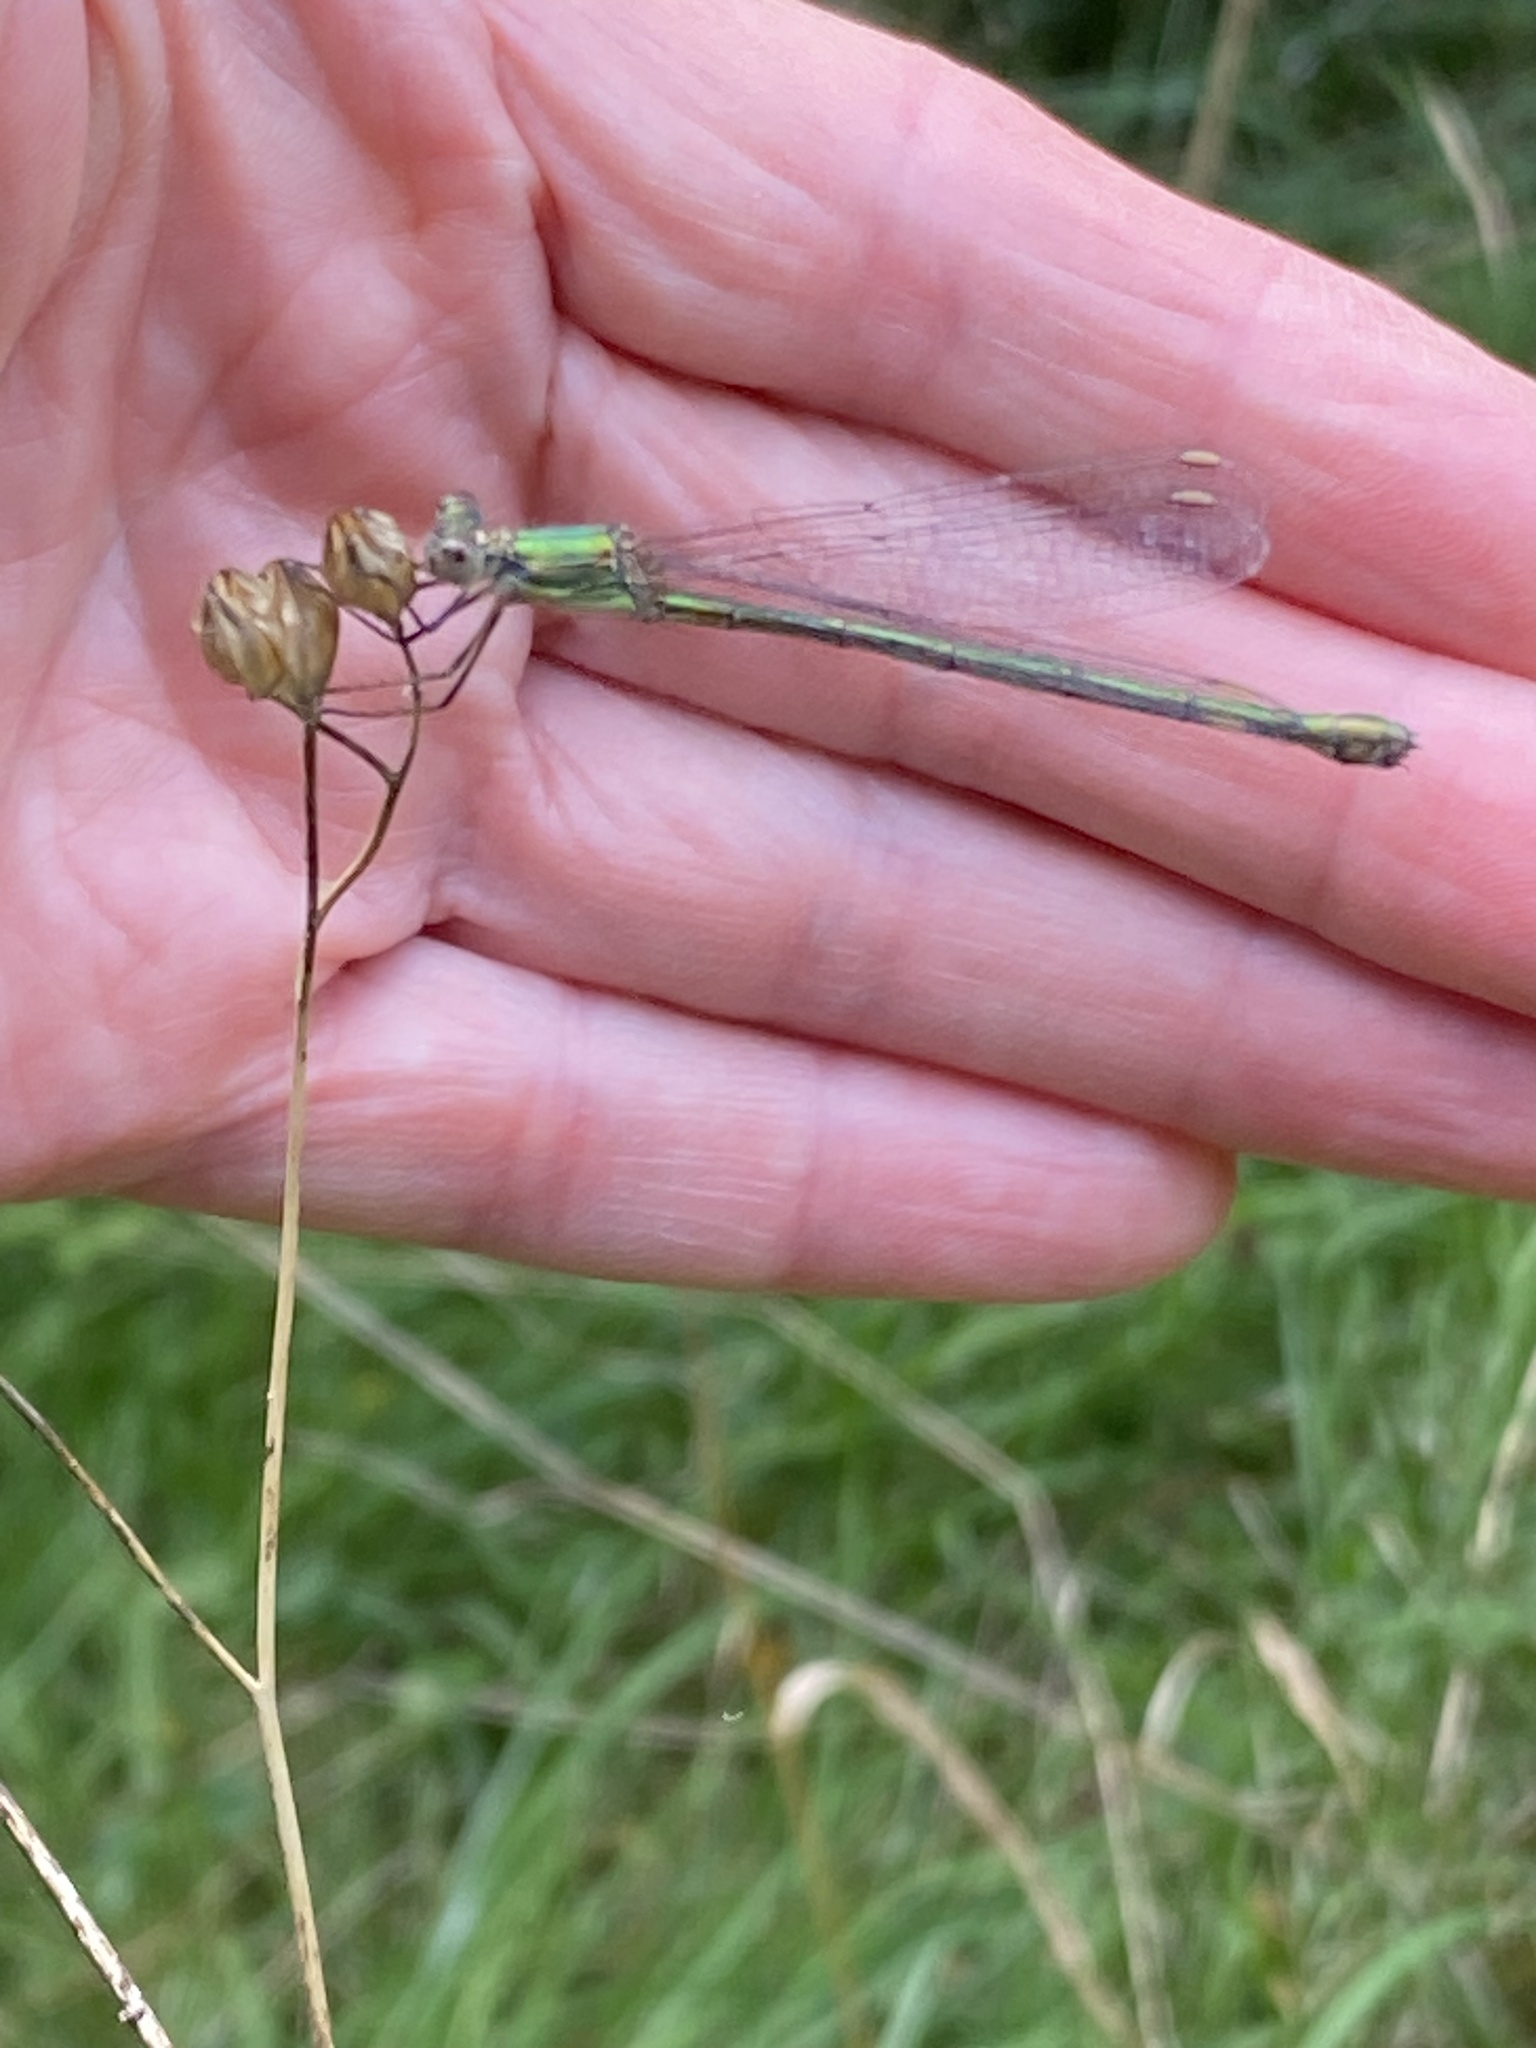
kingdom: Animalia
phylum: Arthropoda
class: Insecta
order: Odonata
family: Lestidae
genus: Chalcolestes
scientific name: Chalcolestes viridis
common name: Green emerald damselfly
